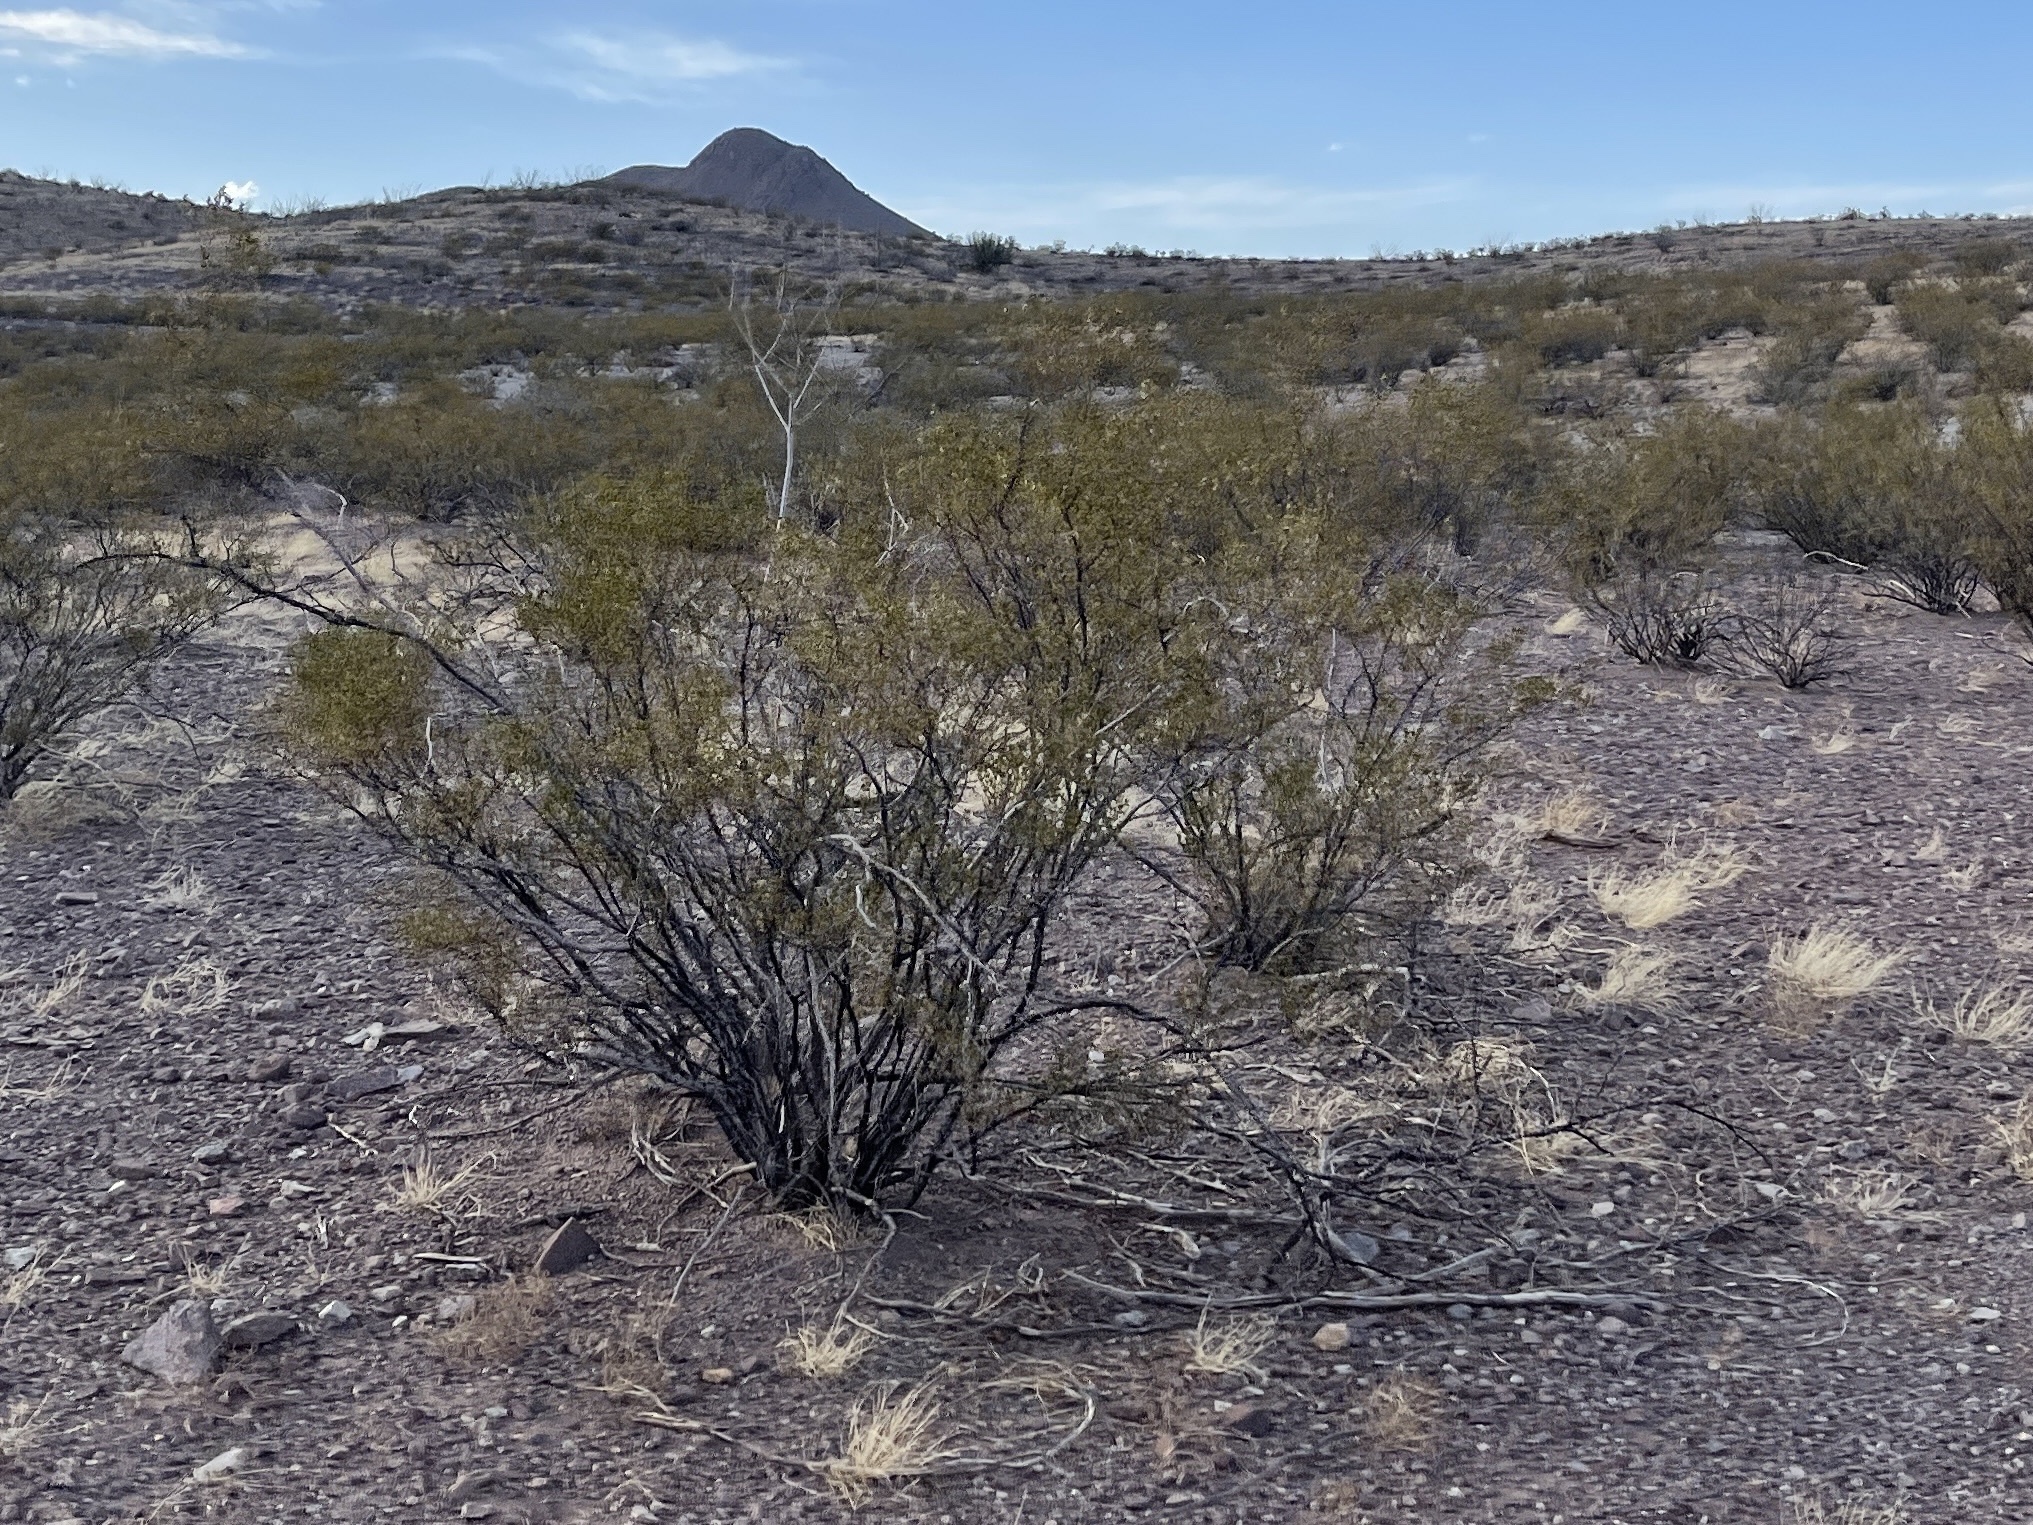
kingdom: Plantae
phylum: Tracheophyta
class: Magnoliopsida
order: Zygophyllales
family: Zygophyllaceae
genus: Larrea
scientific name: Larrea tridentata
